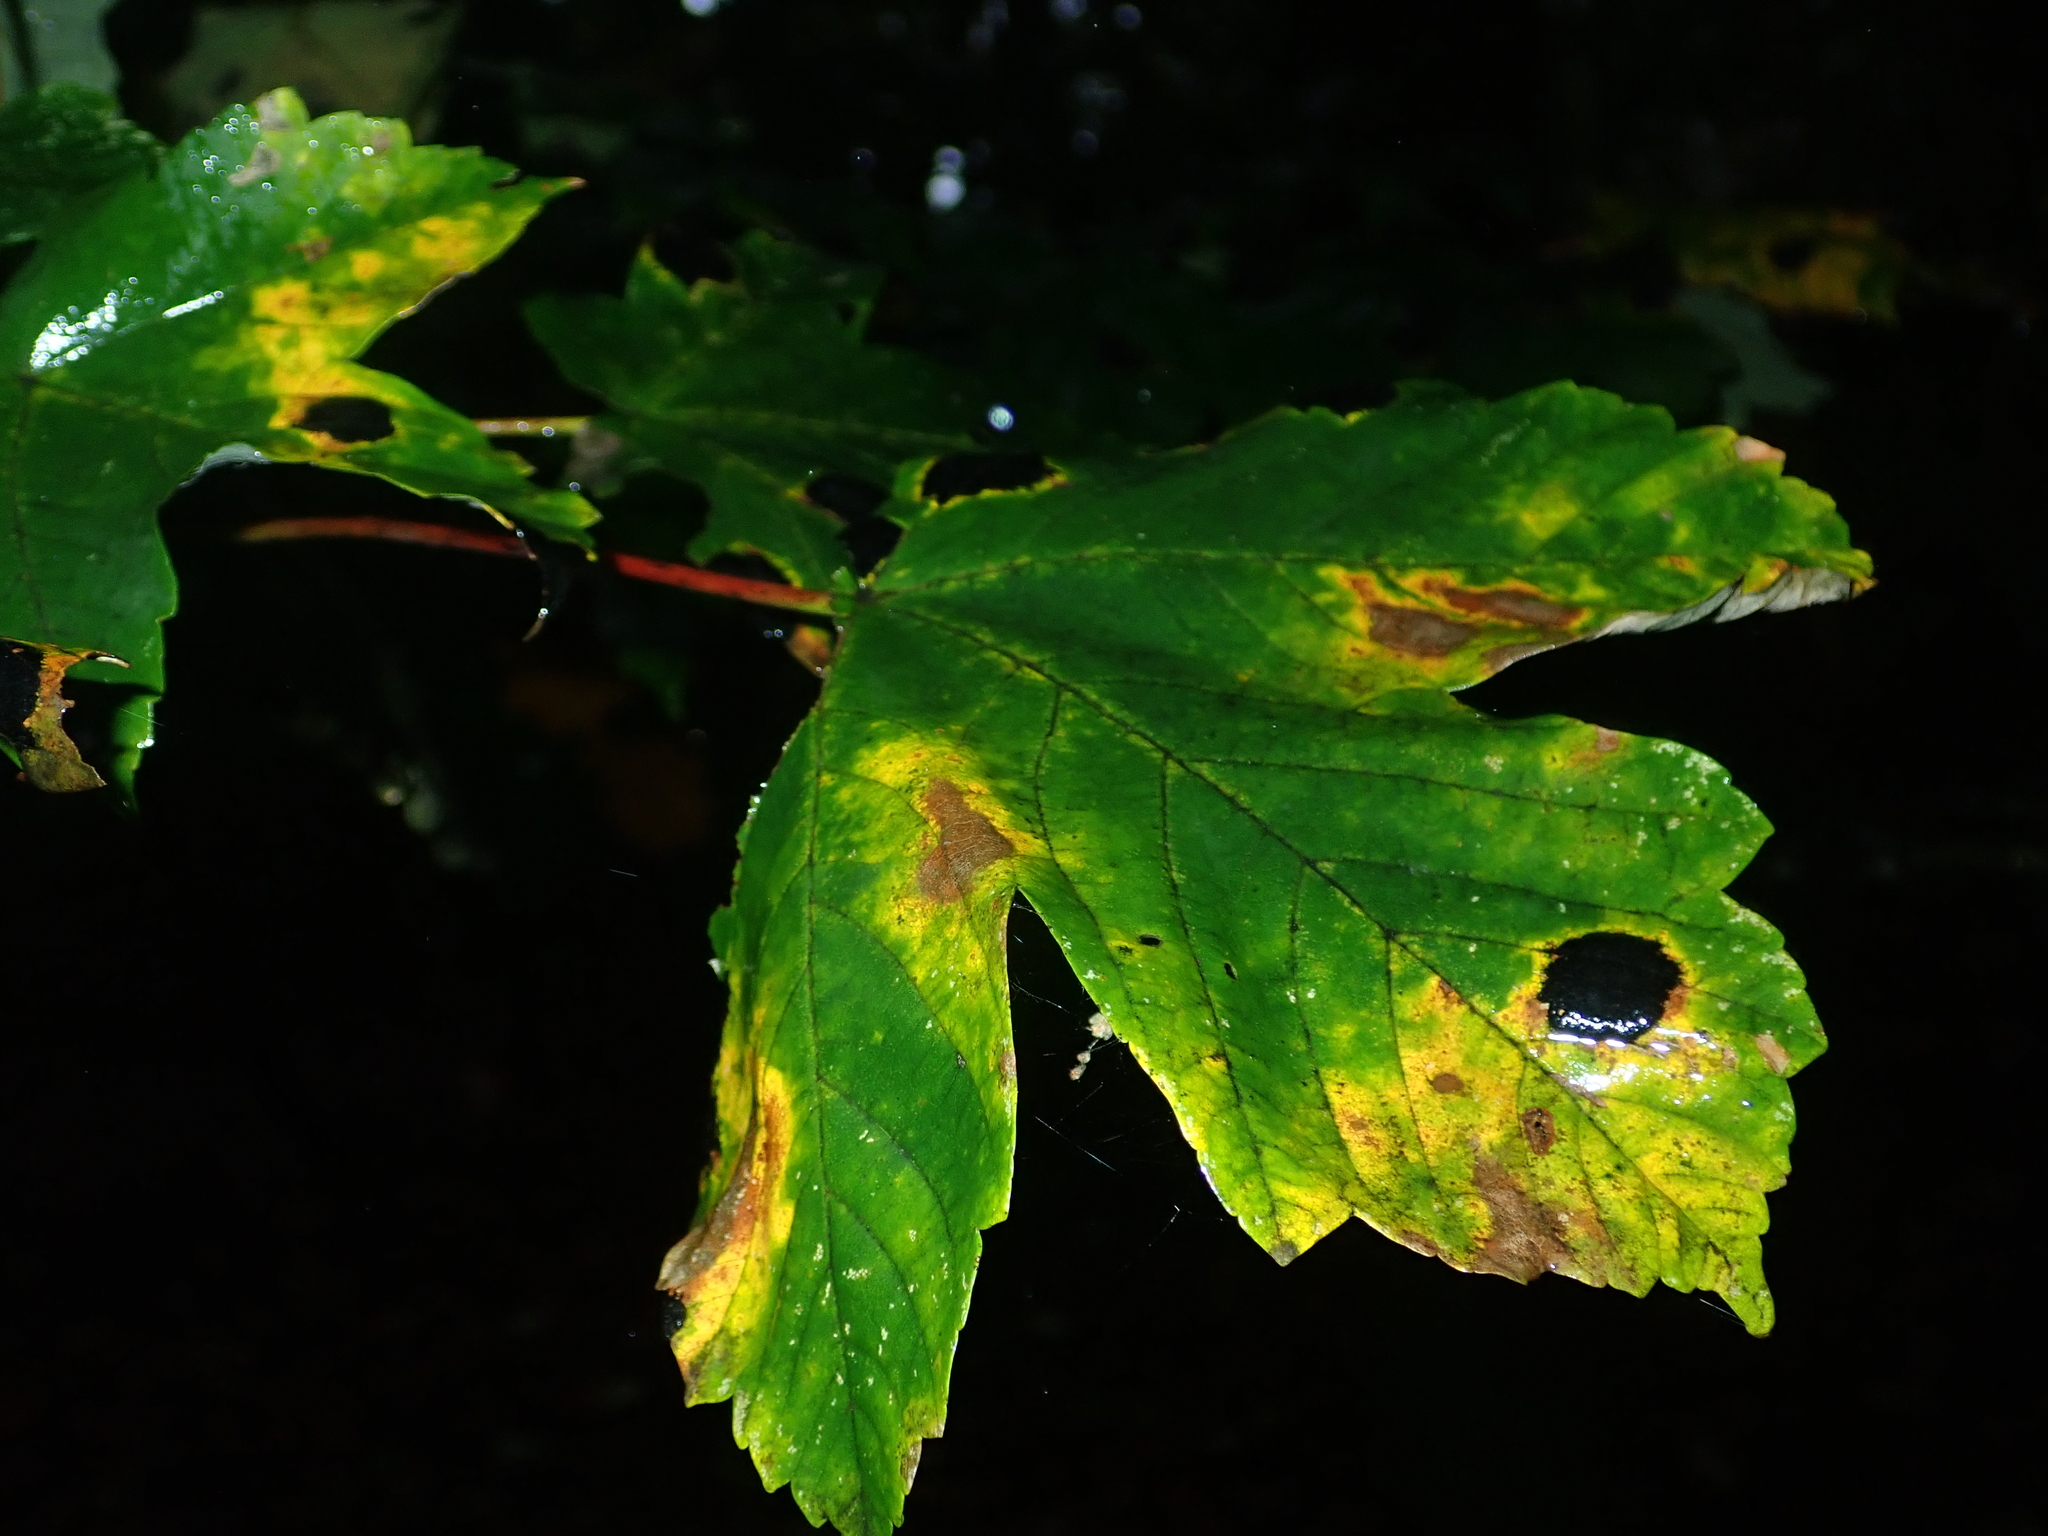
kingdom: Plantae
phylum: Tracheophyta
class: Magnoliopsida
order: Sapindales
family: Sapindaceae
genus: Acer
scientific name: Acer pseudoplatanus
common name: Sycamore
